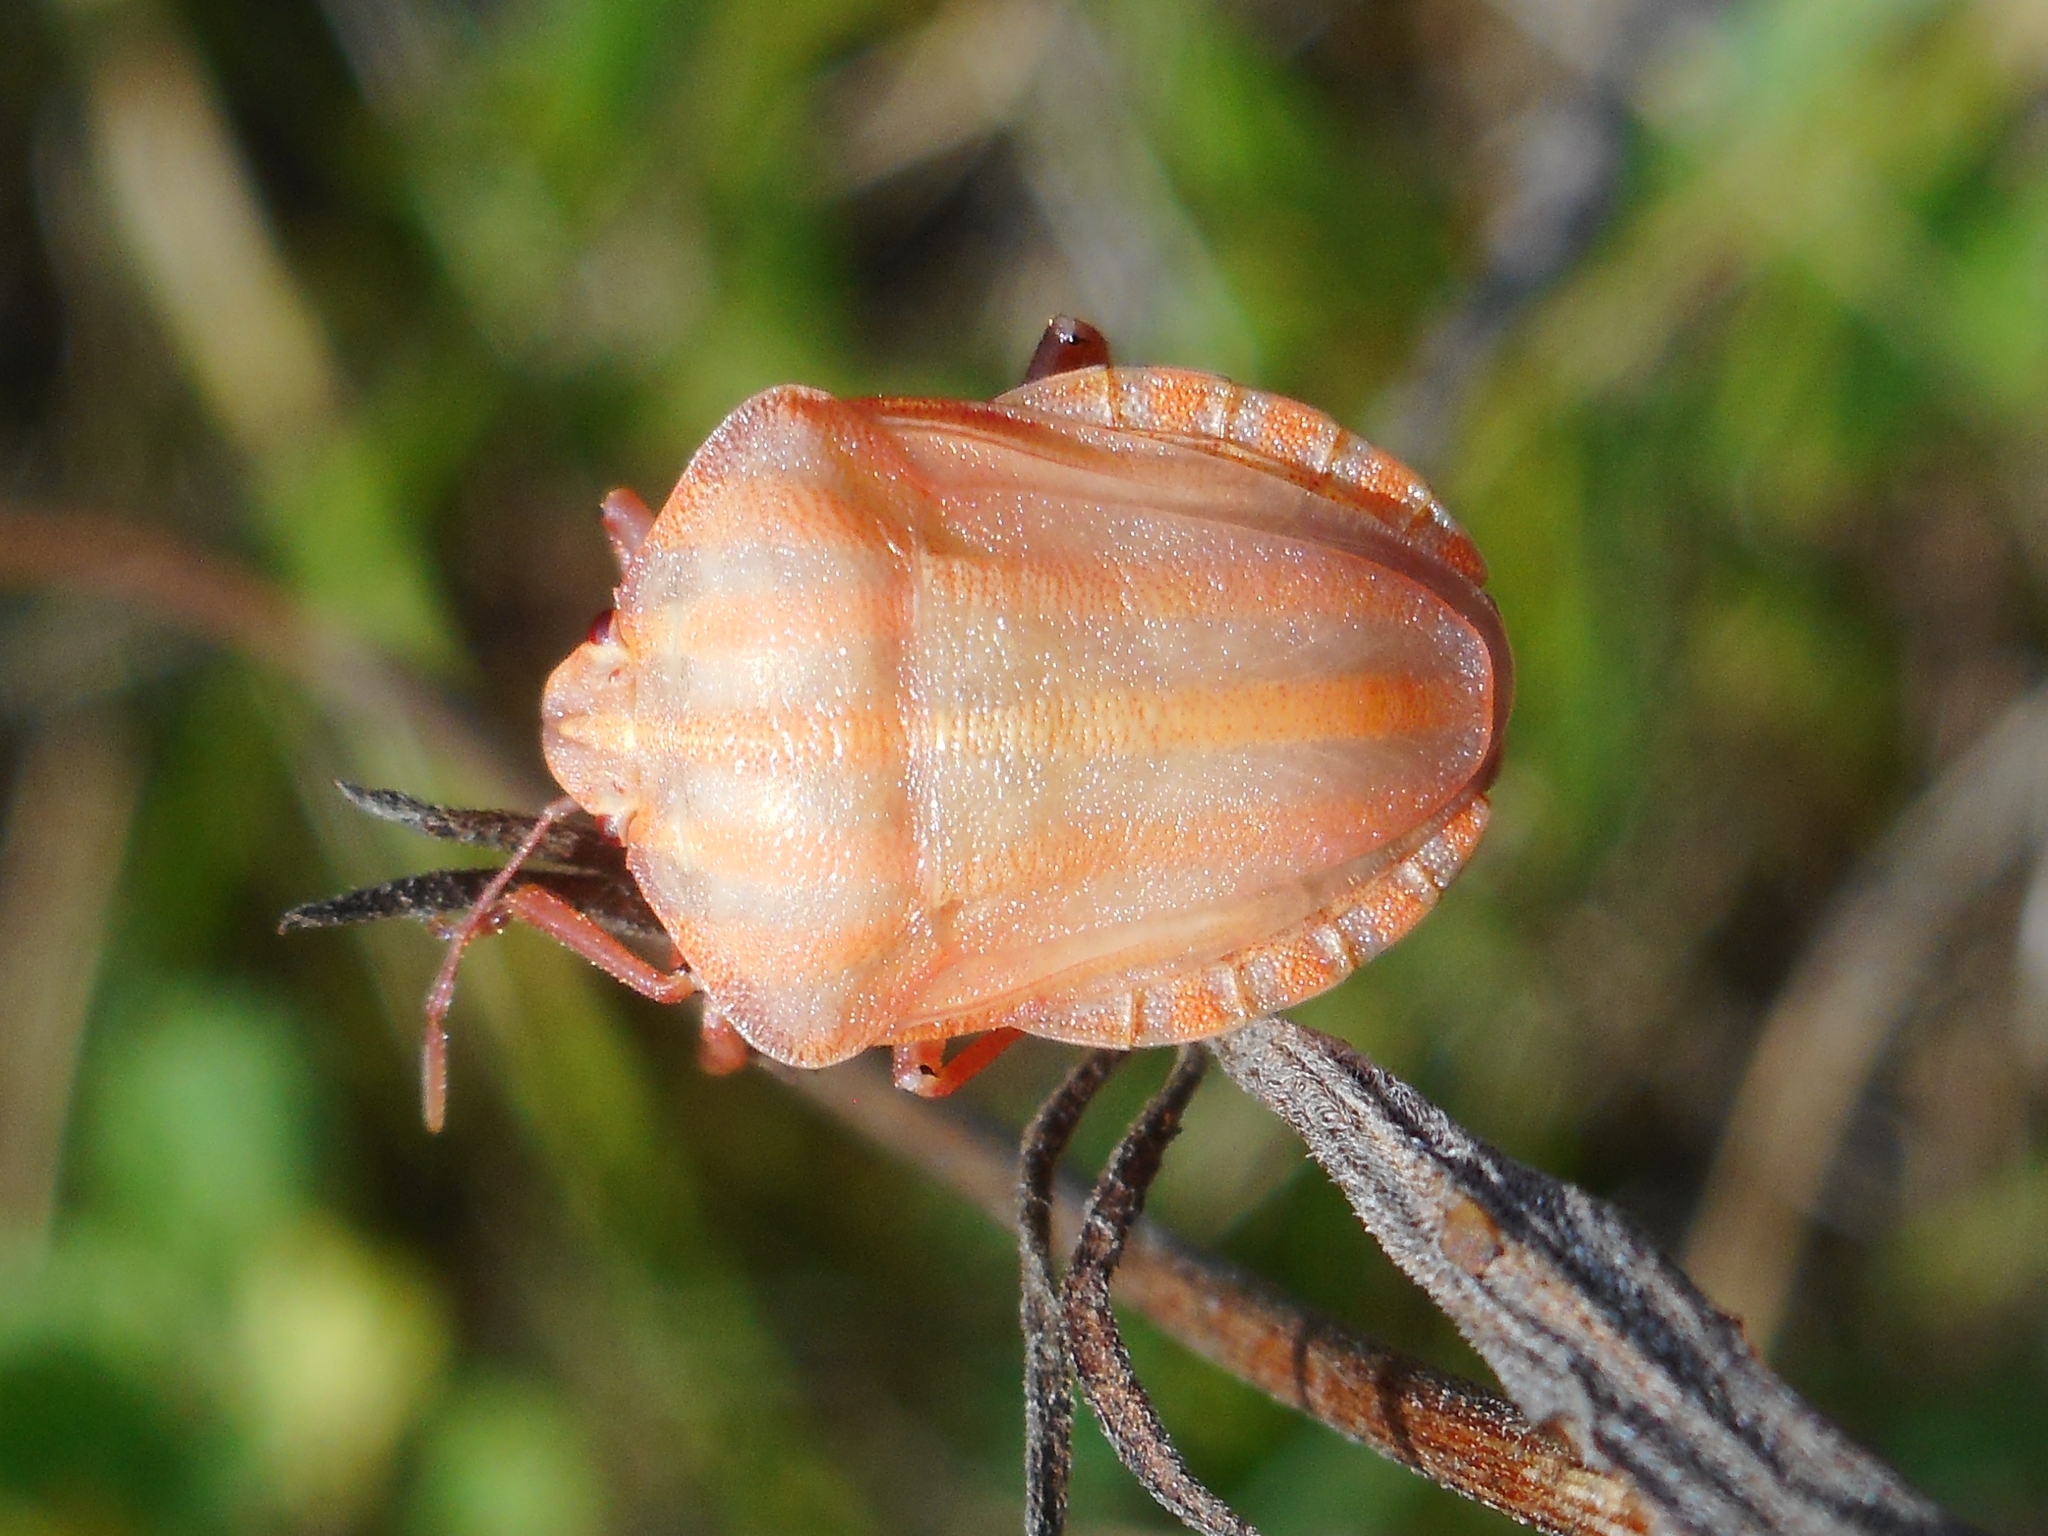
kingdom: Animalia
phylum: Arthropoda
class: Insecta
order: Hemiptera
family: Pentatomidae
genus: Graphosoma
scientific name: Graphosoma italicum
